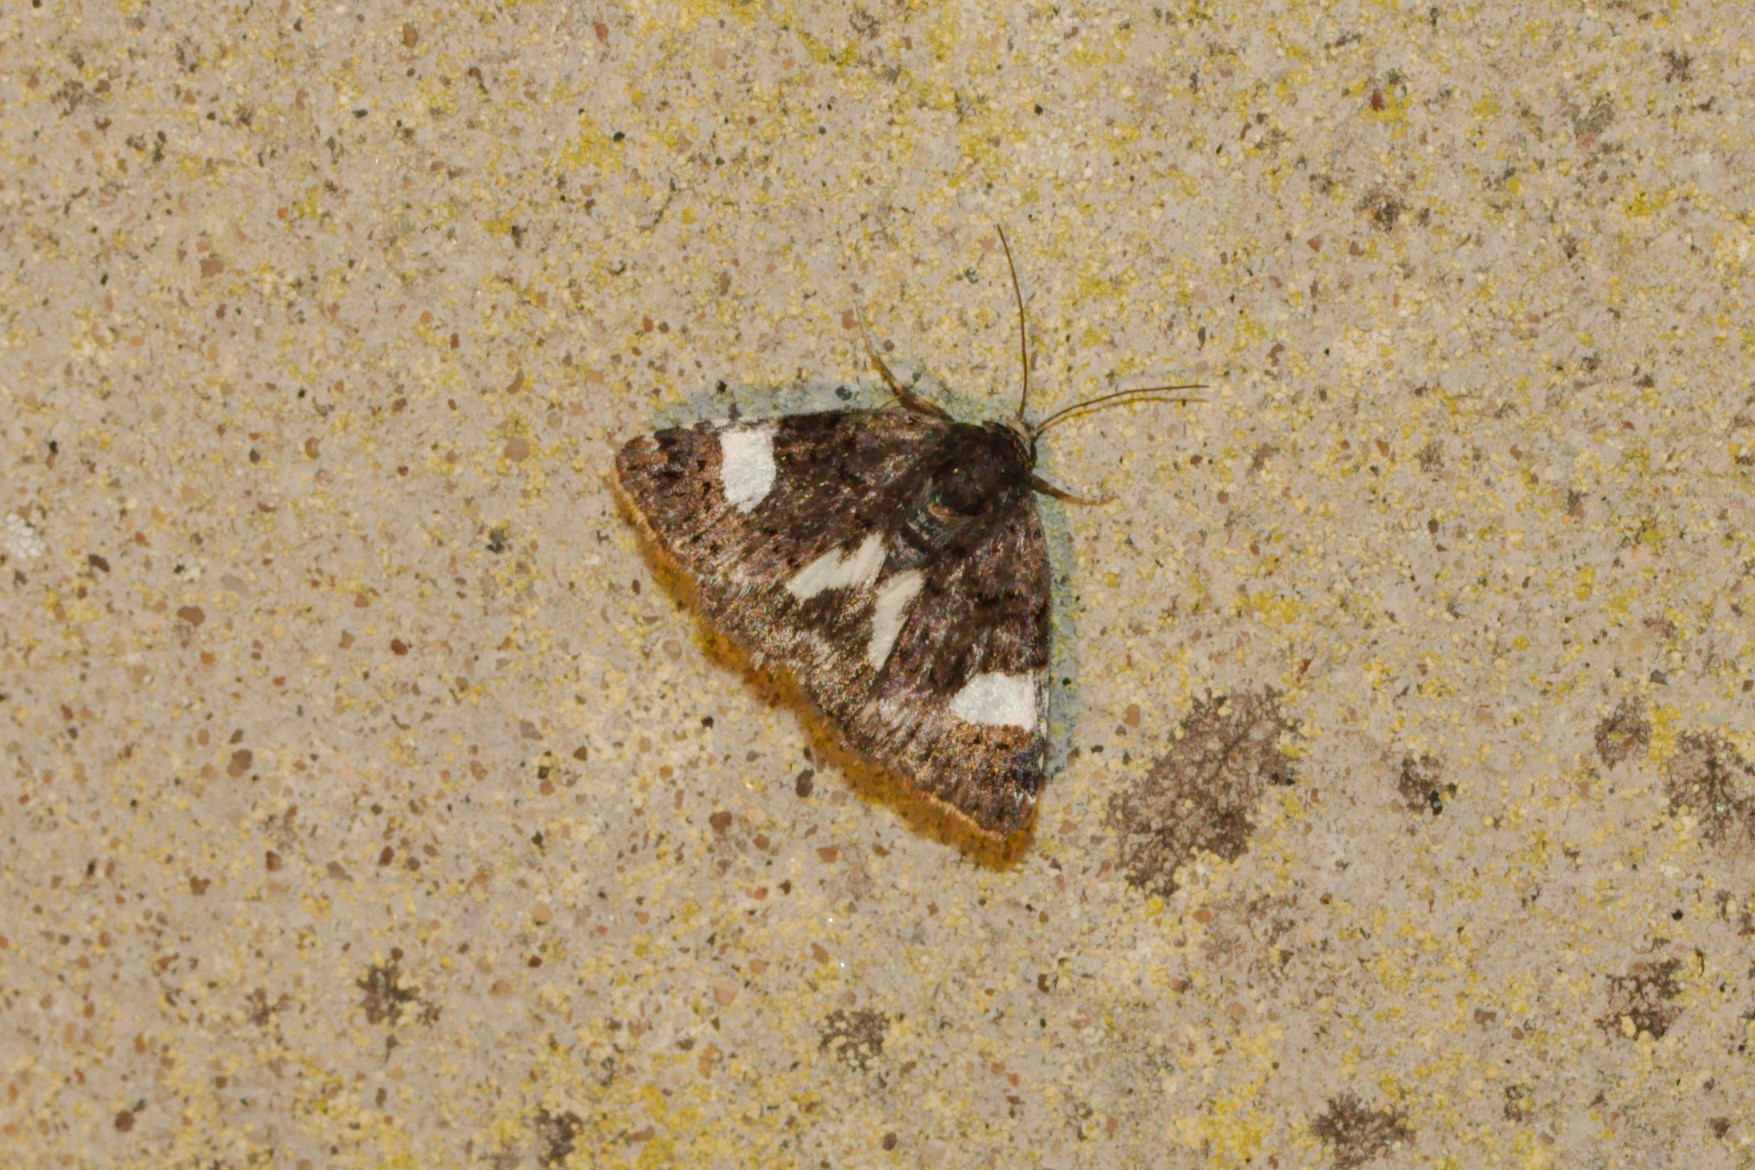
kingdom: Animalia
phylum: Arthropoda
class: Insecta
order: Lepidoptera
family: Erebidae
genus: Tyta
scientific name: Tyta luctuosa
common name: Four-spotted
